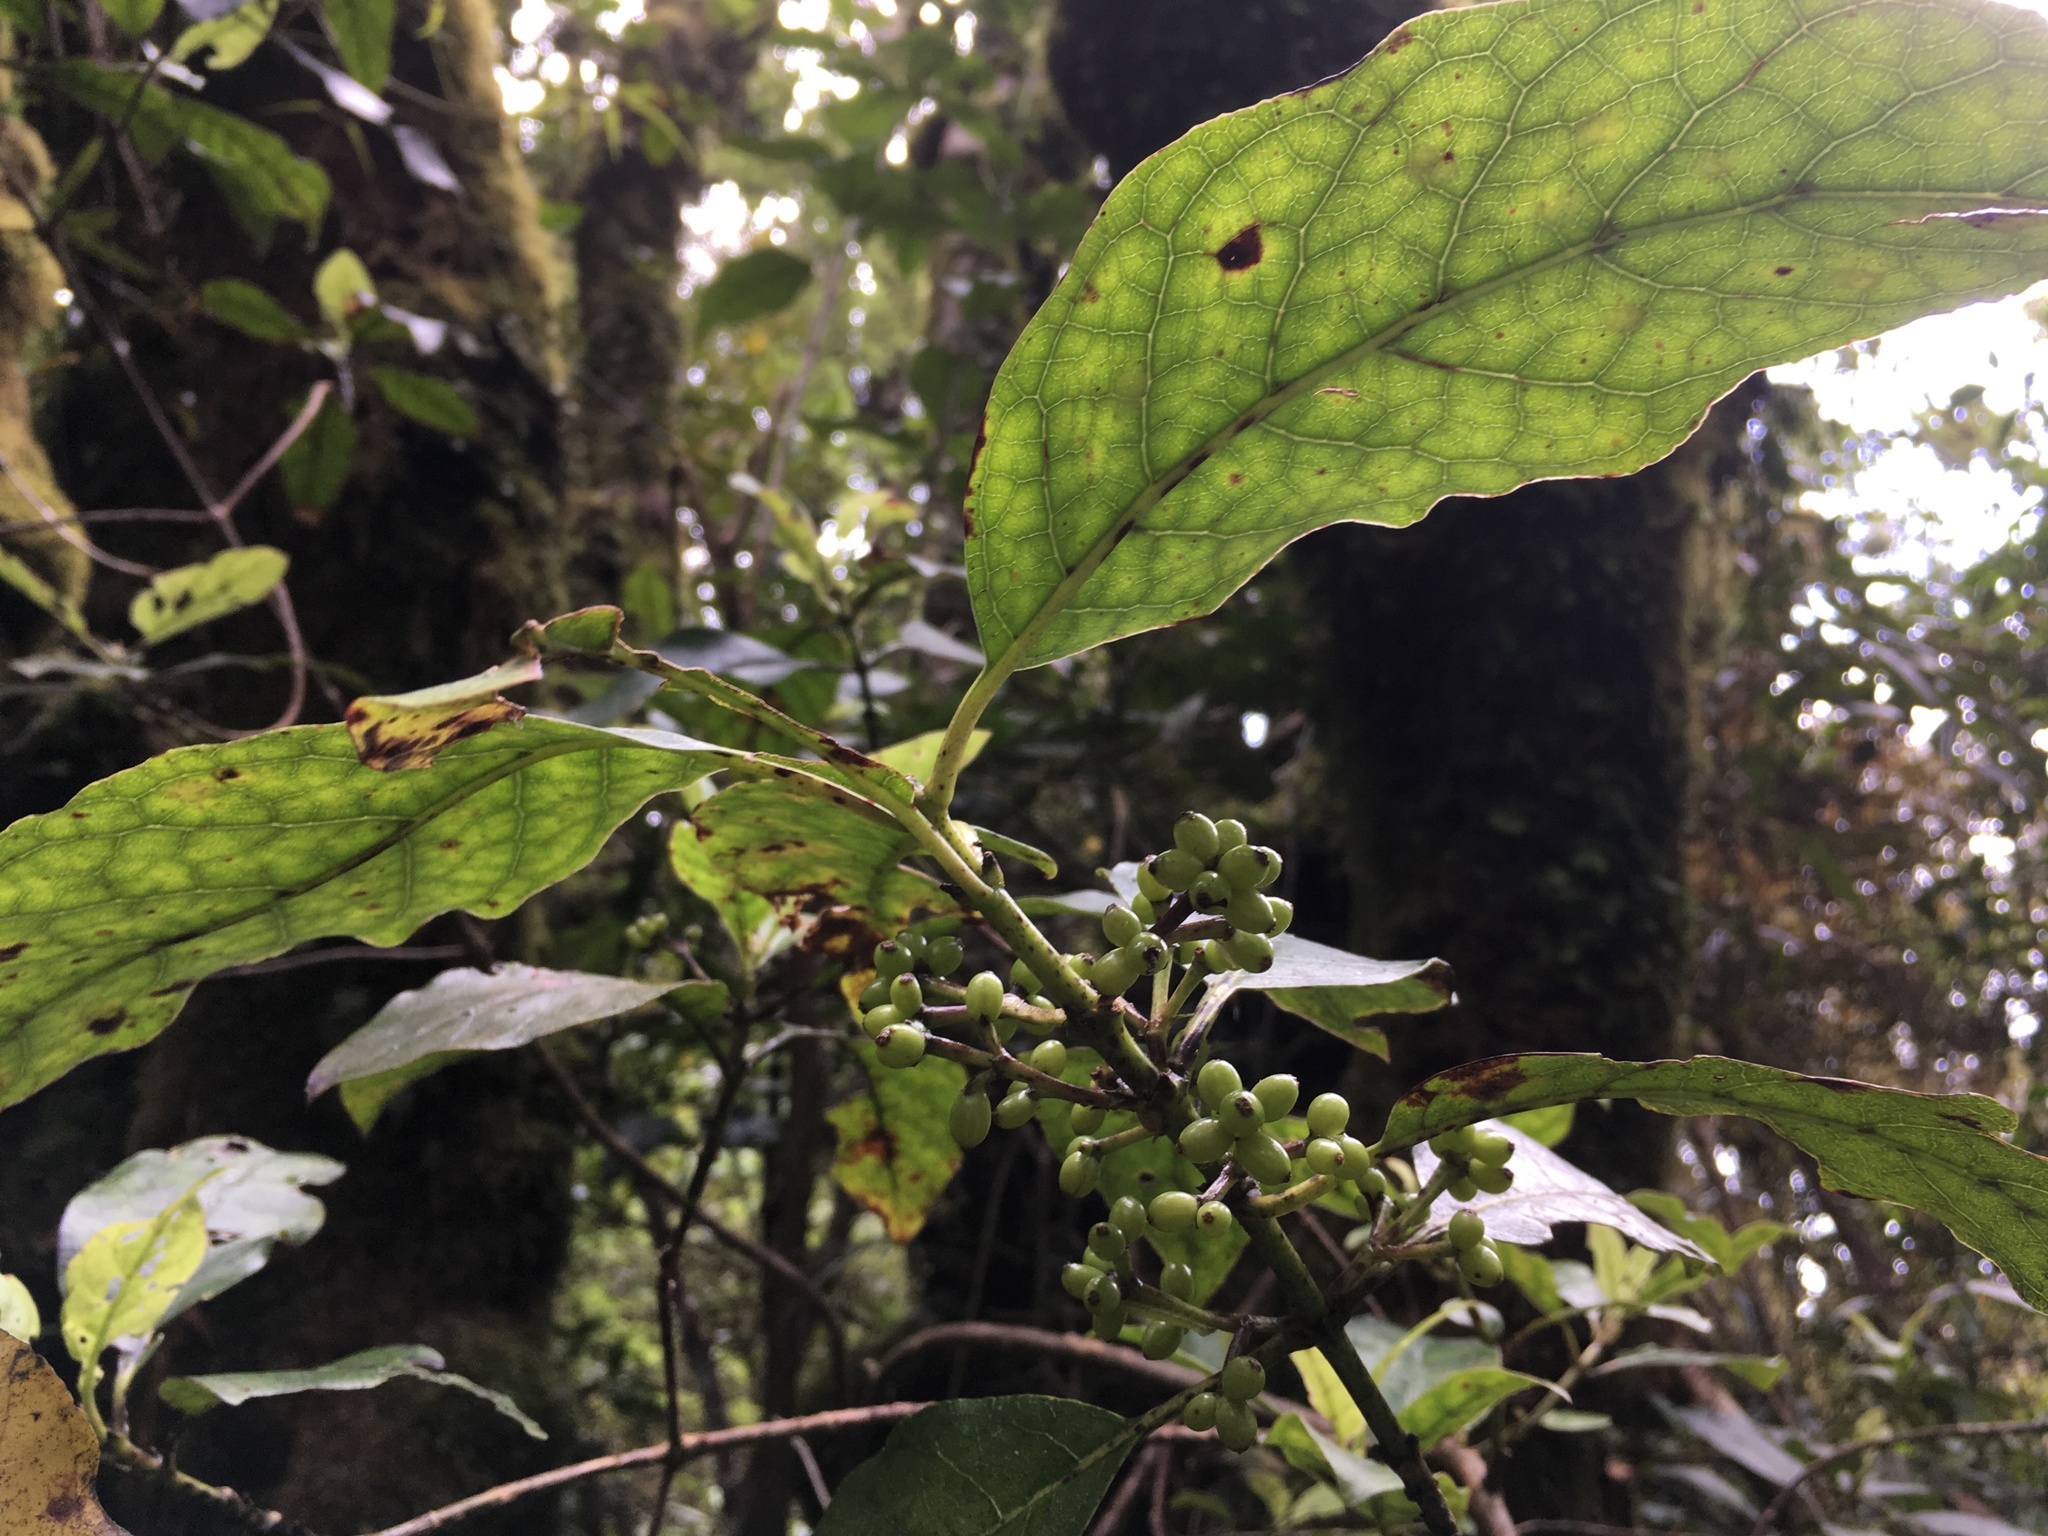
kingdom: Plantae
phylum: Tracheophyta
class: Magnoliopsida
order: Gentianales
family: Rubiaceae
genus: Coprosma
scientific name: Coprosma autumnalis
